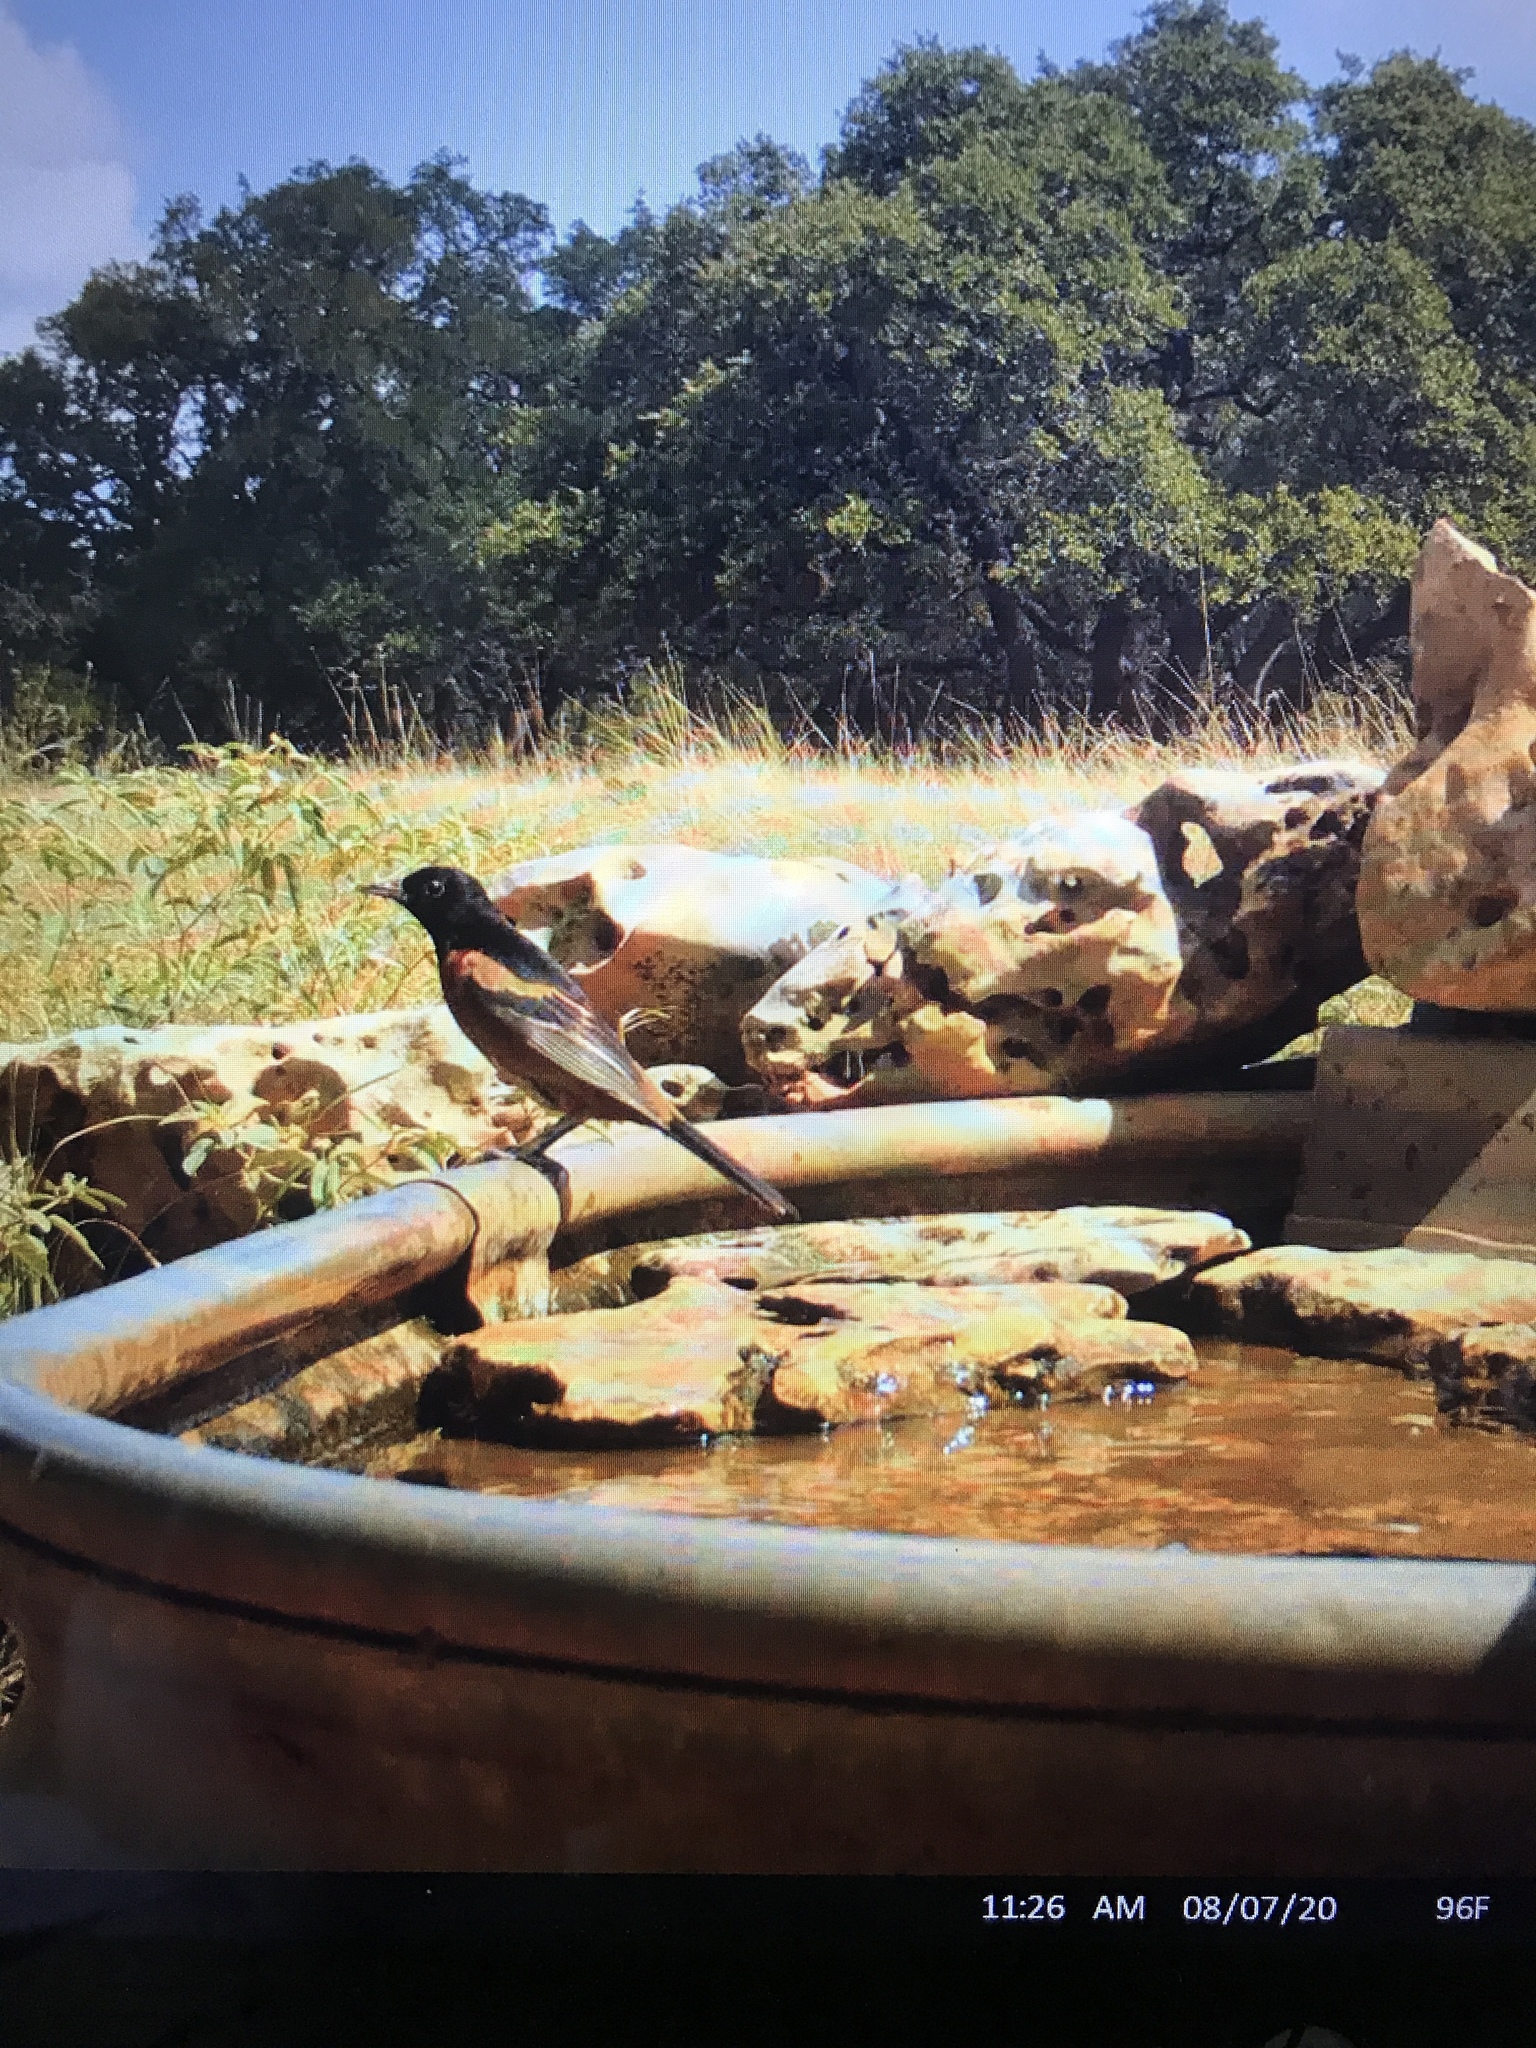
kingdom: Animalia
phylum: Chordata
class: Aves
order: Passeriformes
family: Icteridae
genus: Icterus
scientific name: Icterus spurius
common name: Orchard oriole
